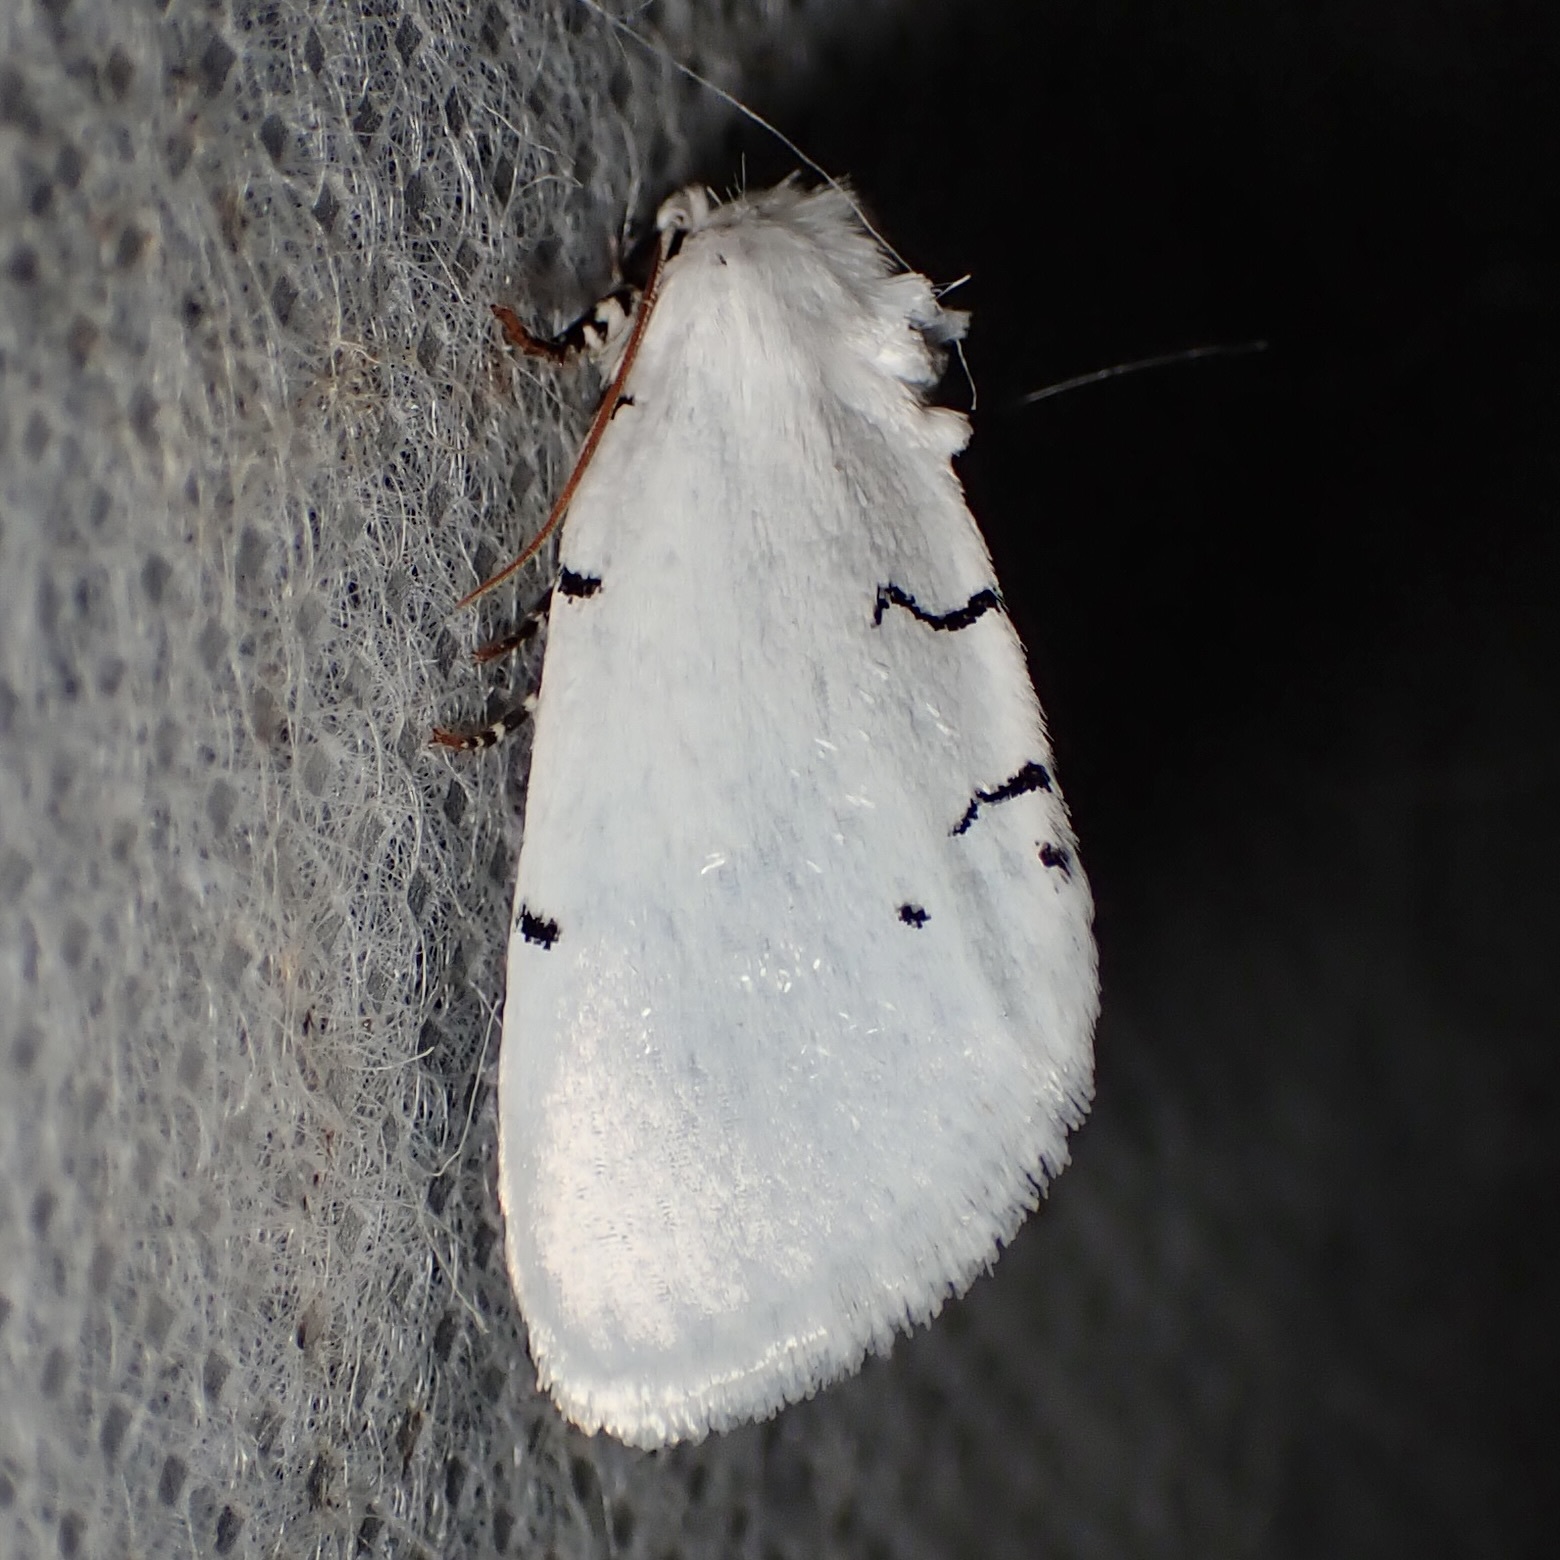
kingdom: Animalia
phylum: Arthropoda
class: Insecta
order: Lepidoptera
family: Noctuidae
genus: Hemioslaria
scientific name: Hemioslaria pima
